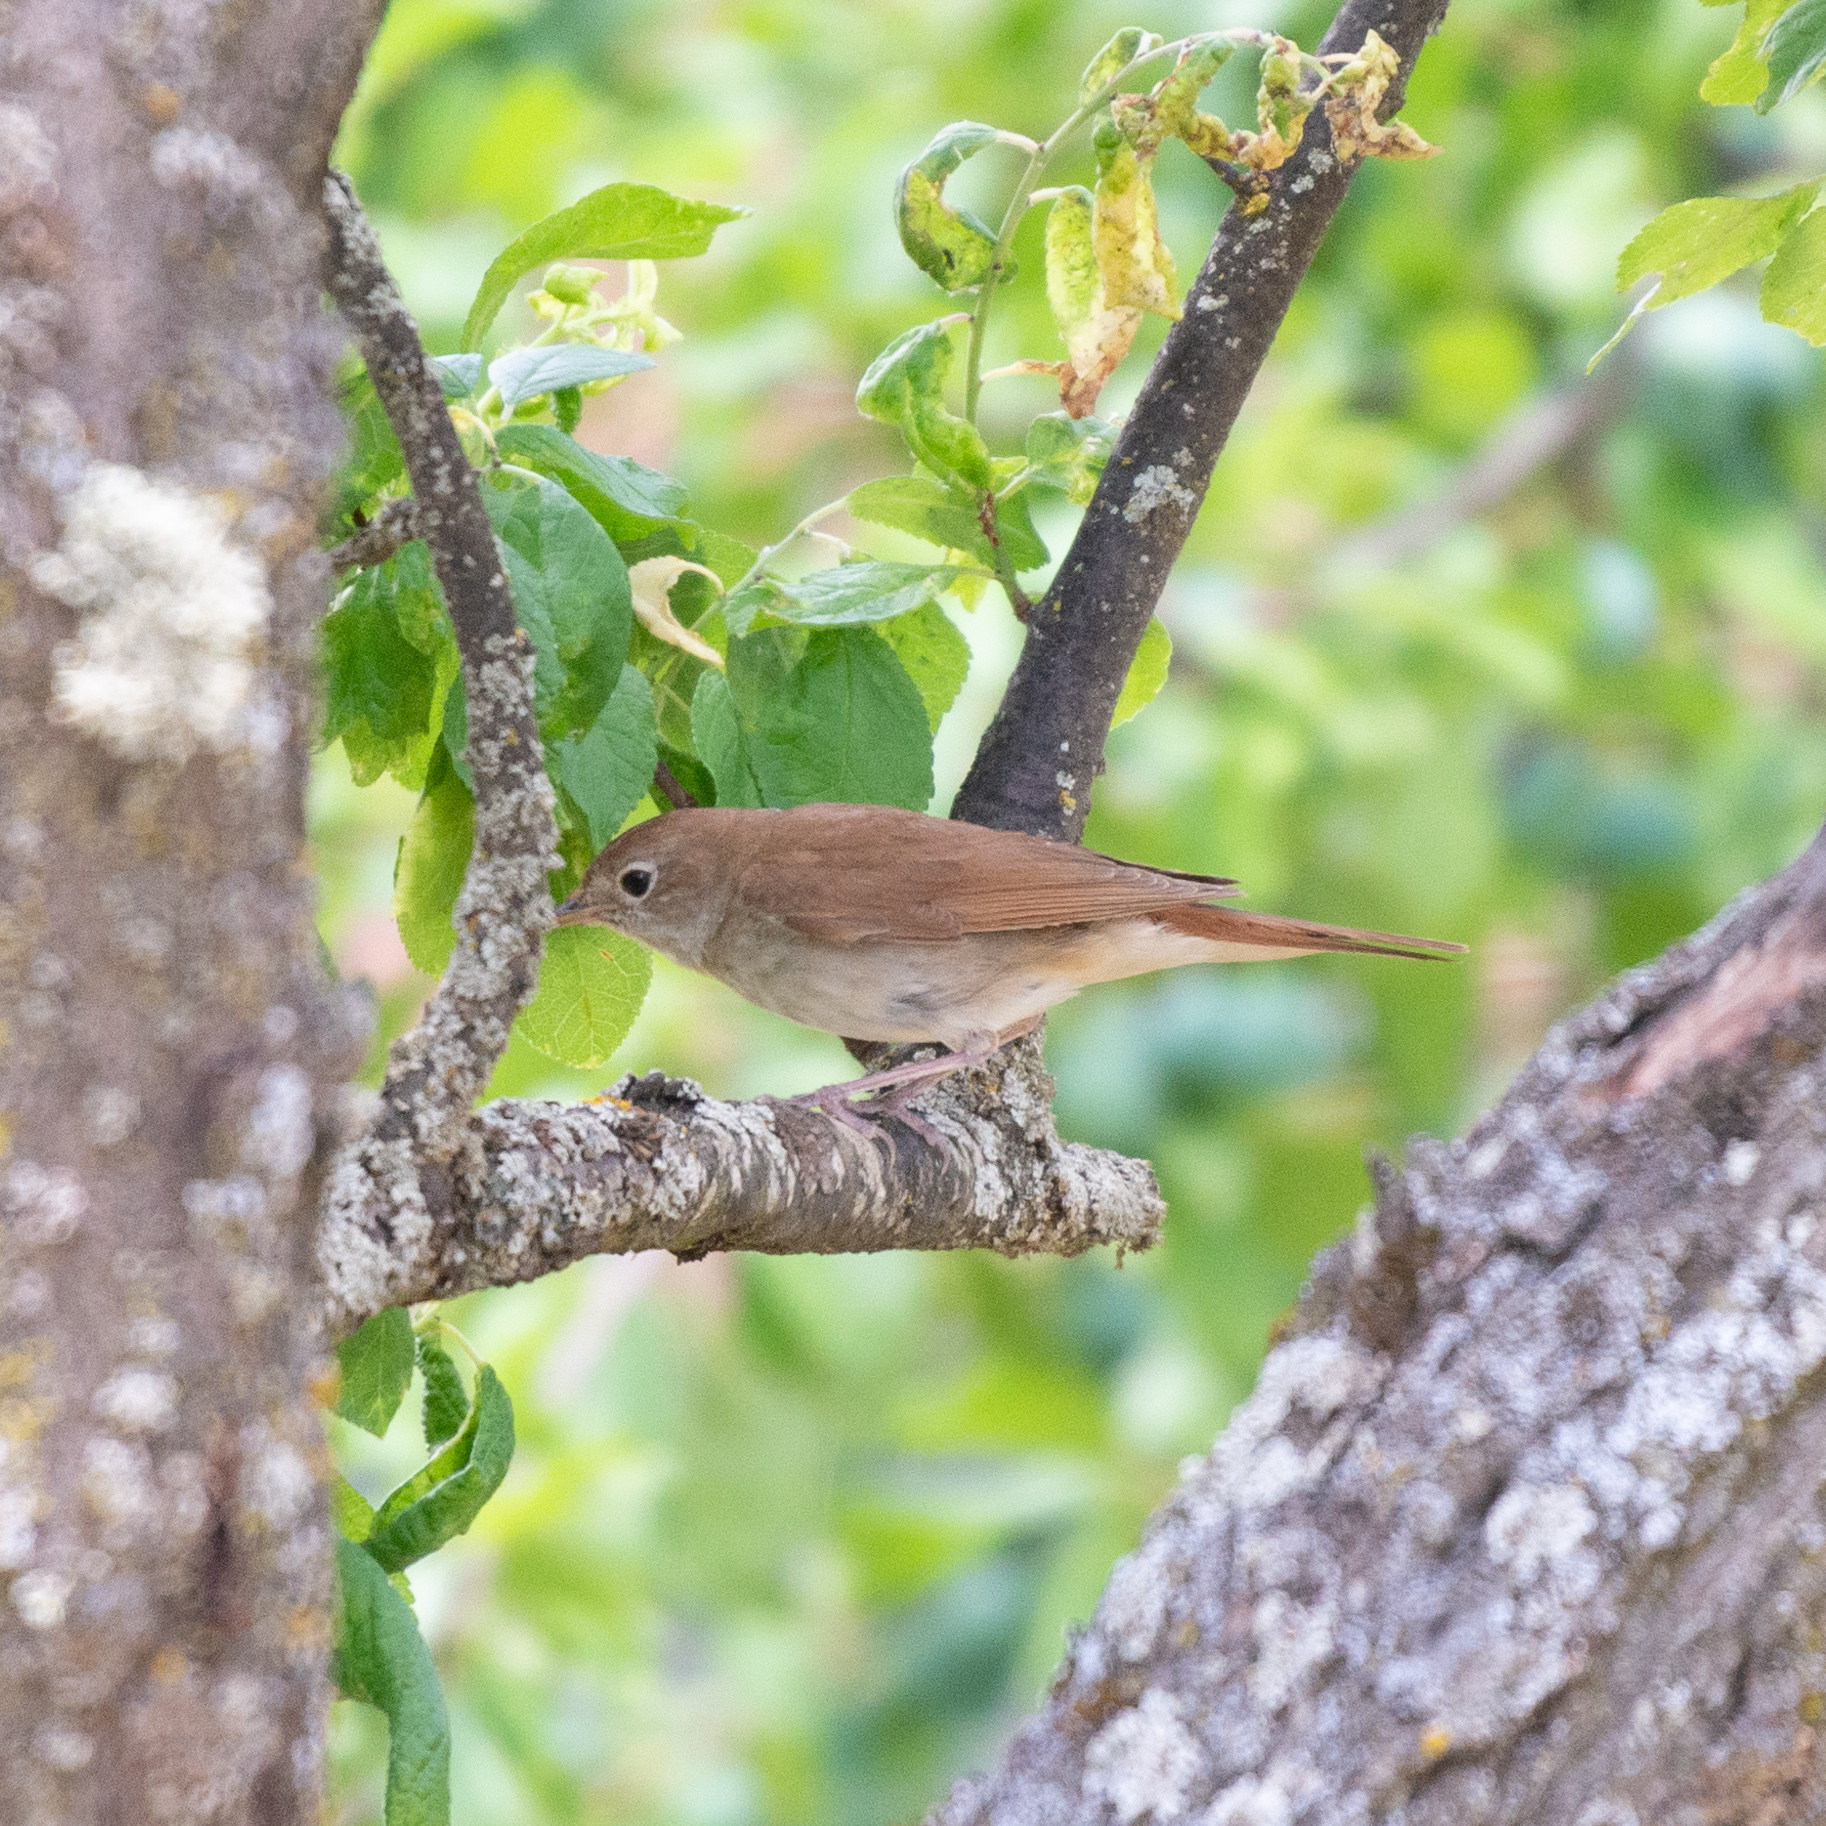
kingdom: Animalia
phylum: Chordata
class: Aves
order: Passeriformes
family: Muscicapidae
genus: Luscinia
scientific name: Luscinia megarhynchos
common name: Common nightingale
